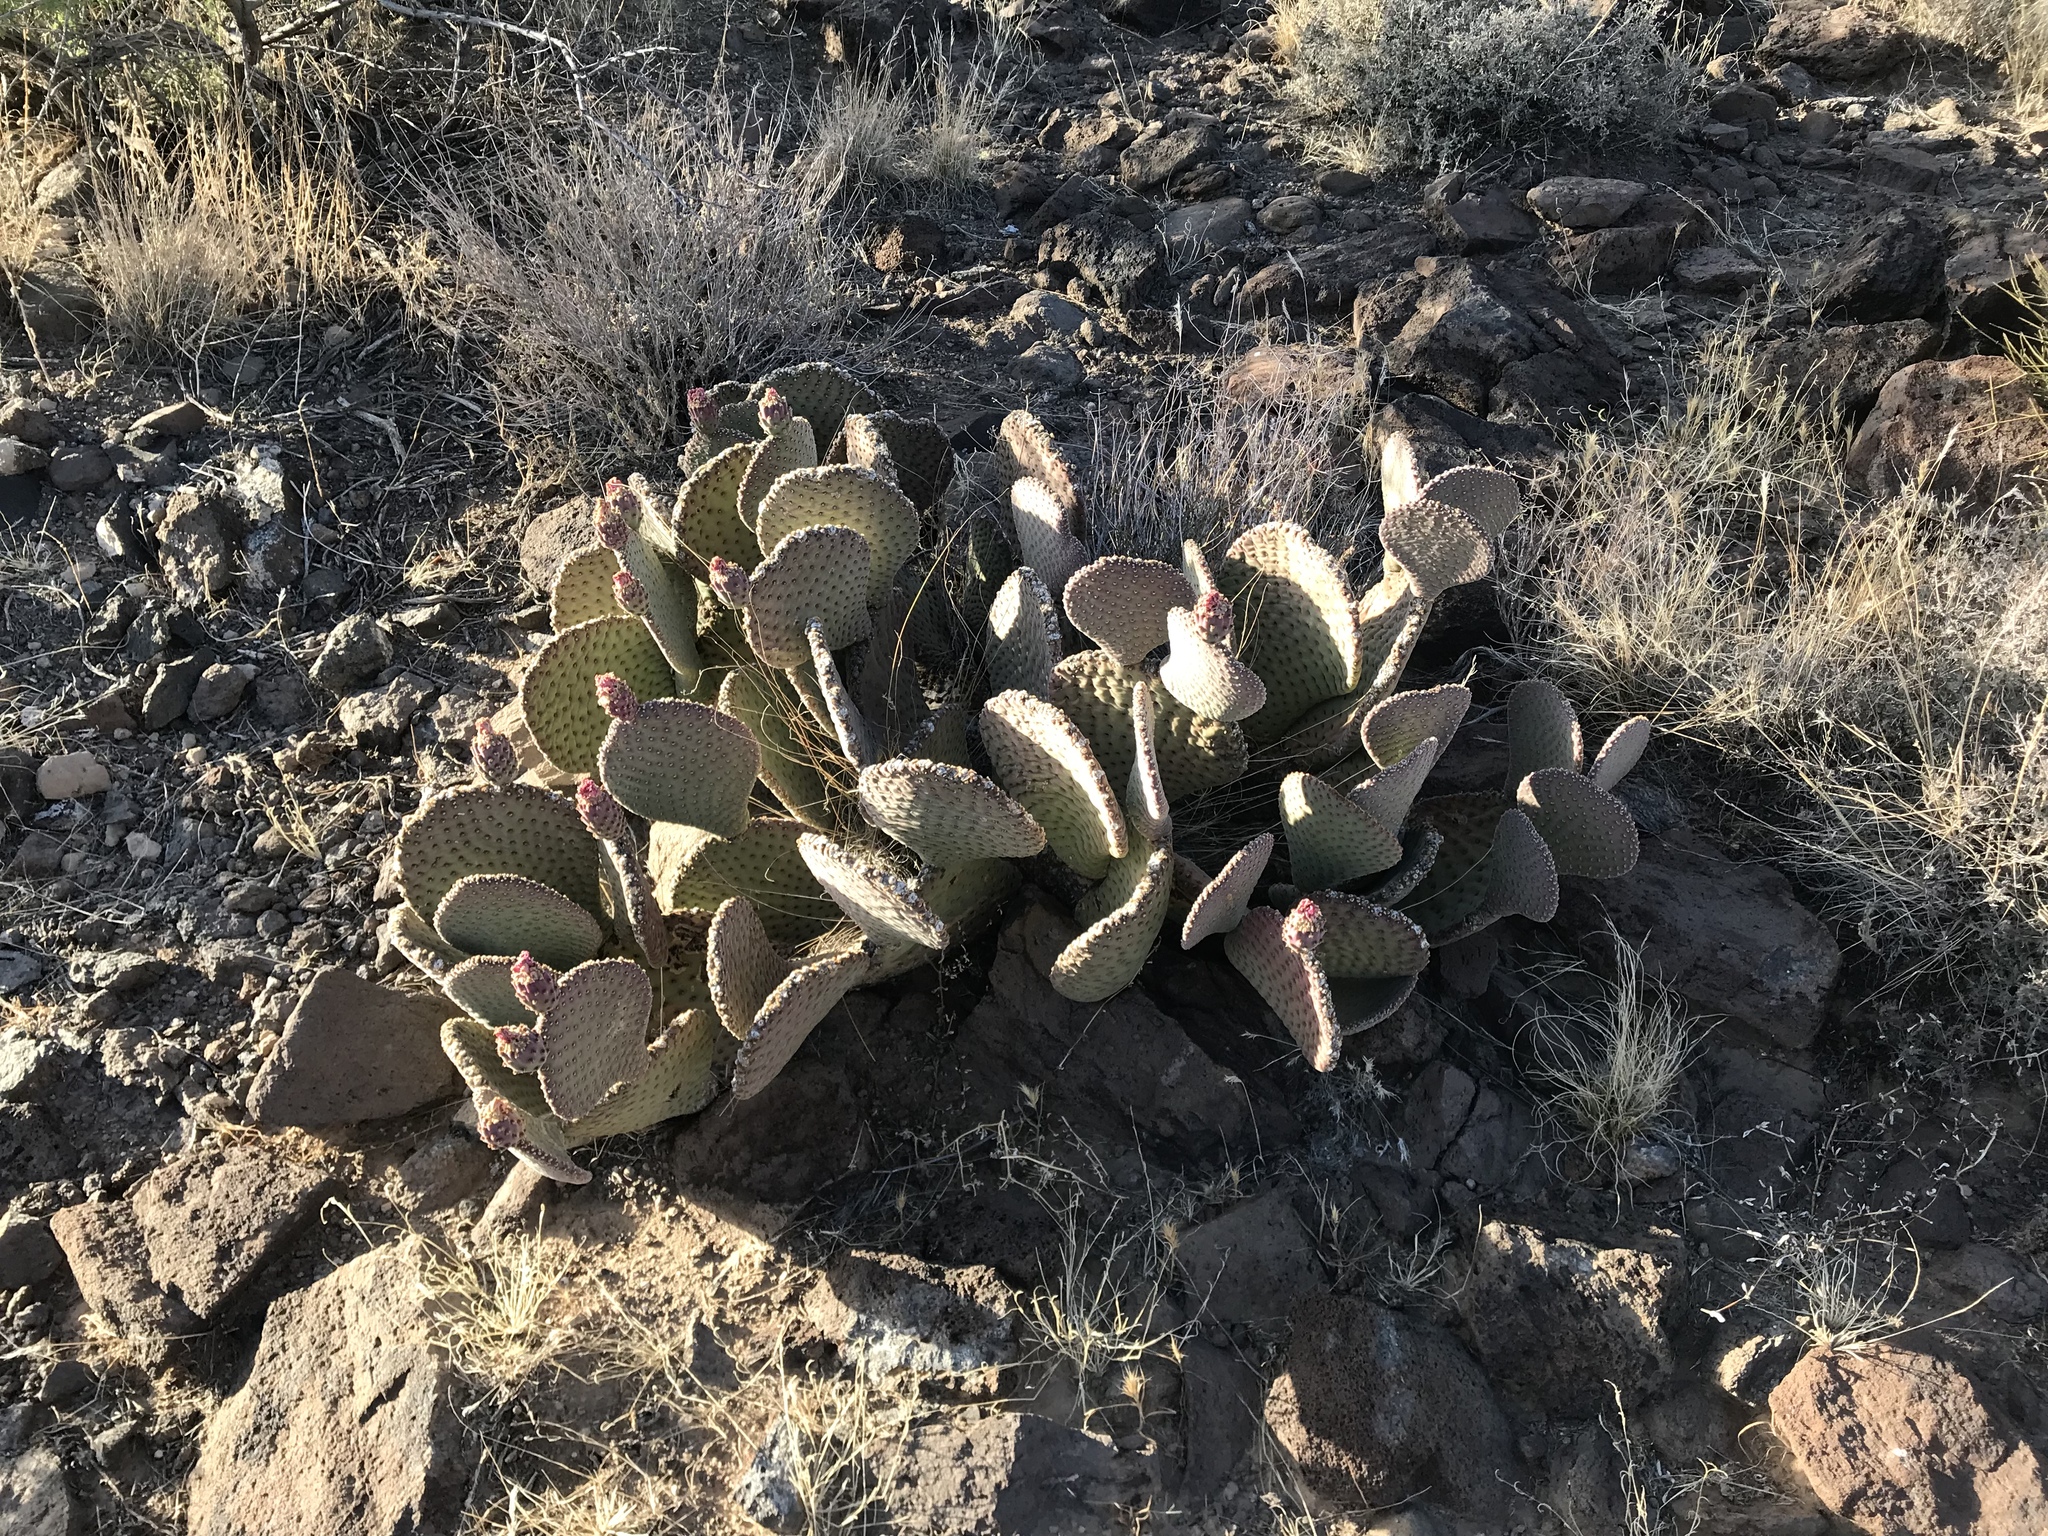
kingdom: Plantae
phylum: Tracheophyta
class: Magnoliopsida
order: Caryophyllales
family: Cactaceae
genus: Opuntia
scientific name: Opuntia basilaris
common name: Beavertail prickly-pear
